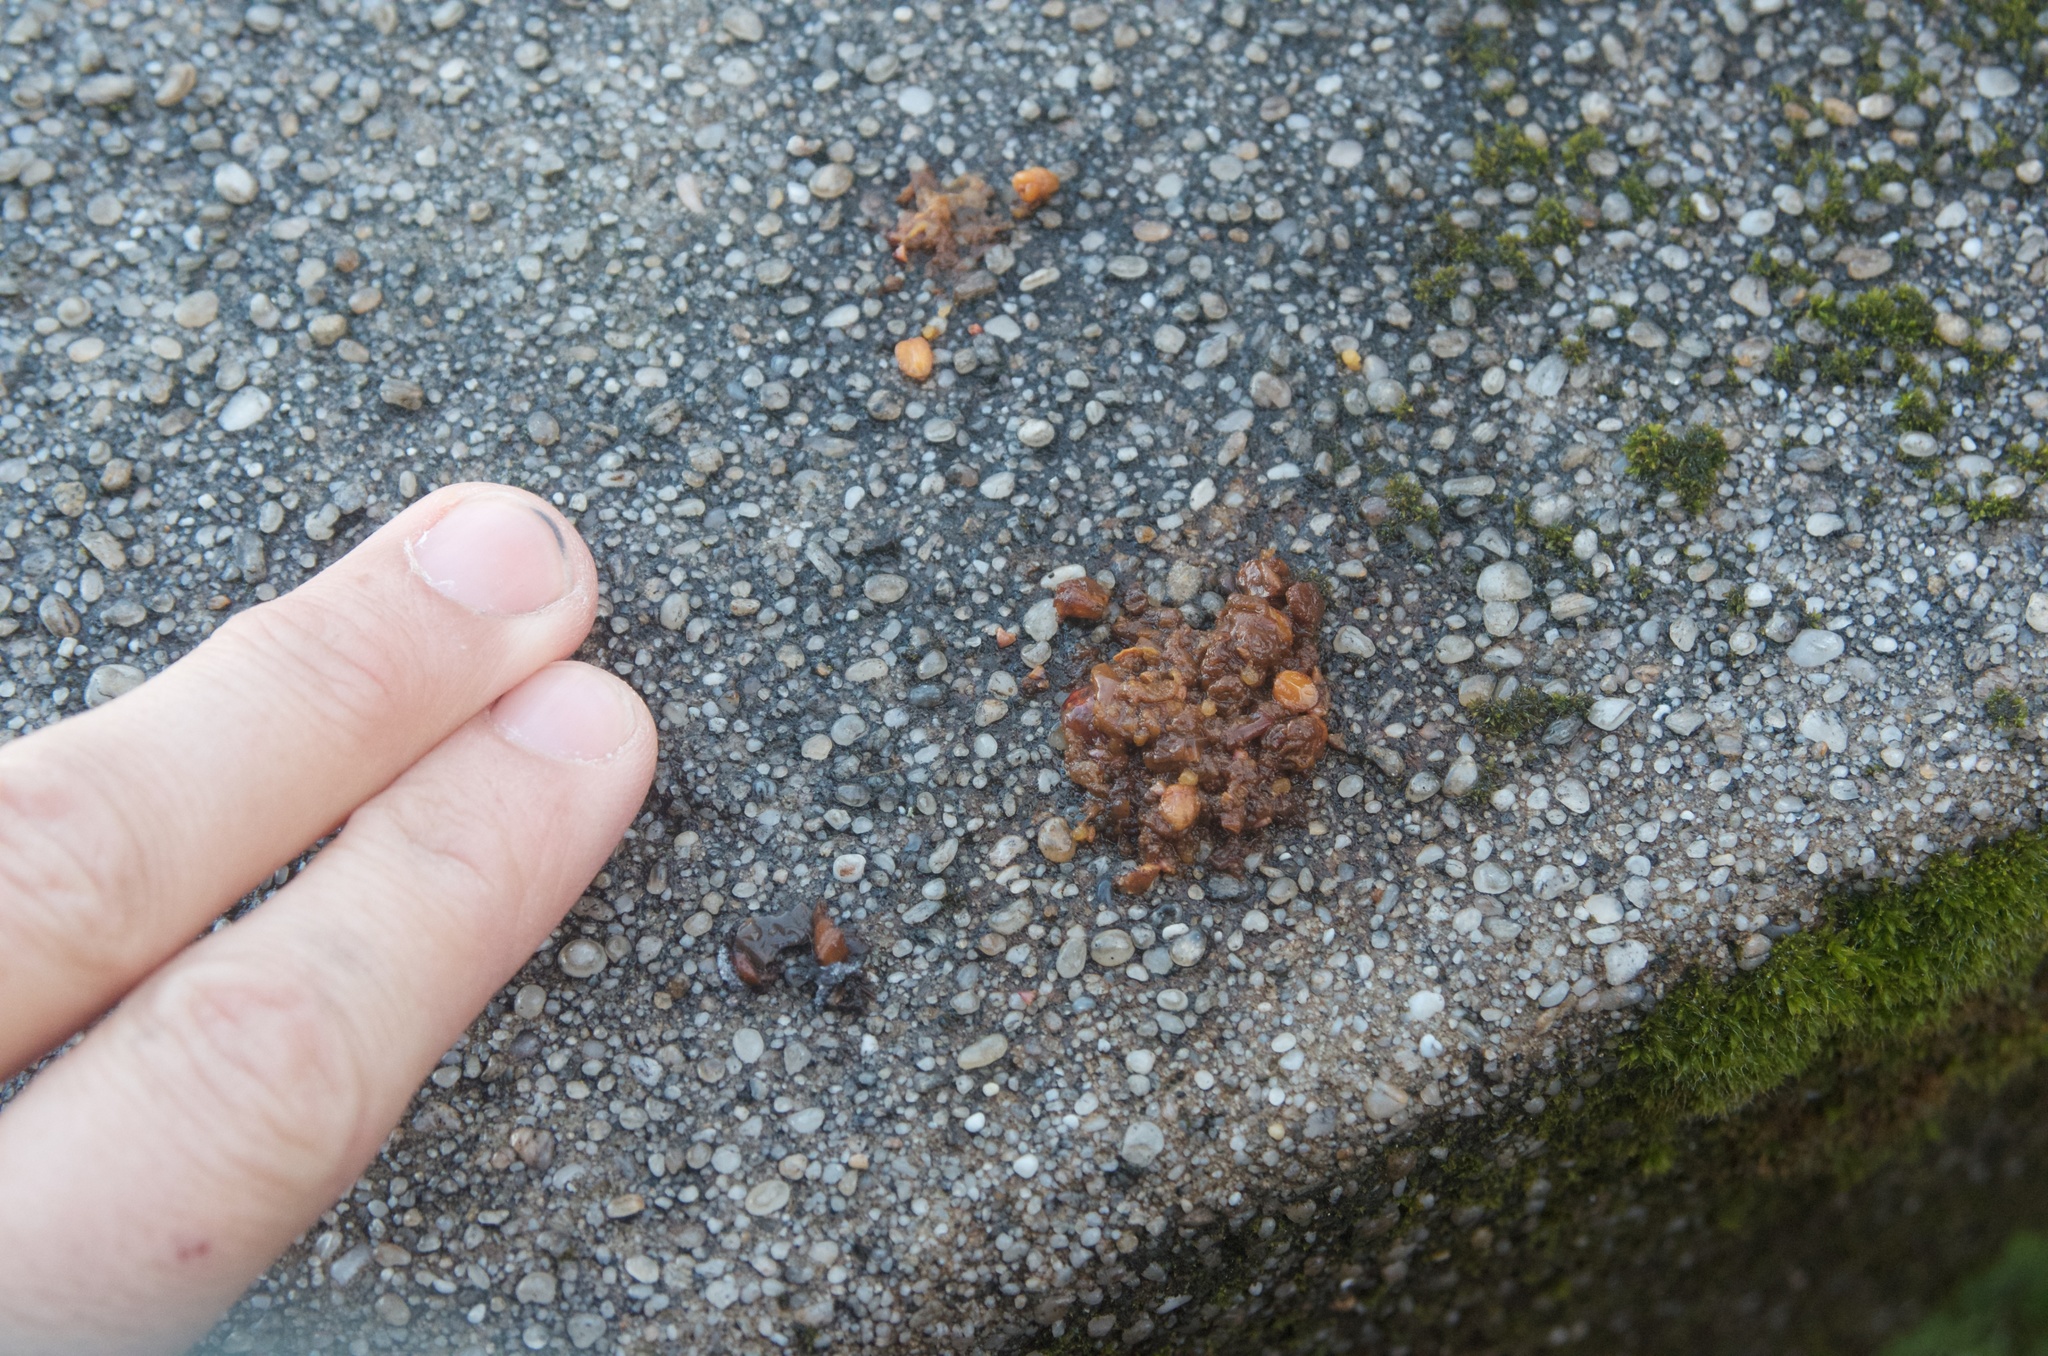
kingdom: Animalia
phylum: Chordata
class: Aves
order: Columbiformes
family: Columbidae
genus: Hemiphaga
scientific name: Hemiphaga novaeseelandiae
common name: New zealand pigeon
